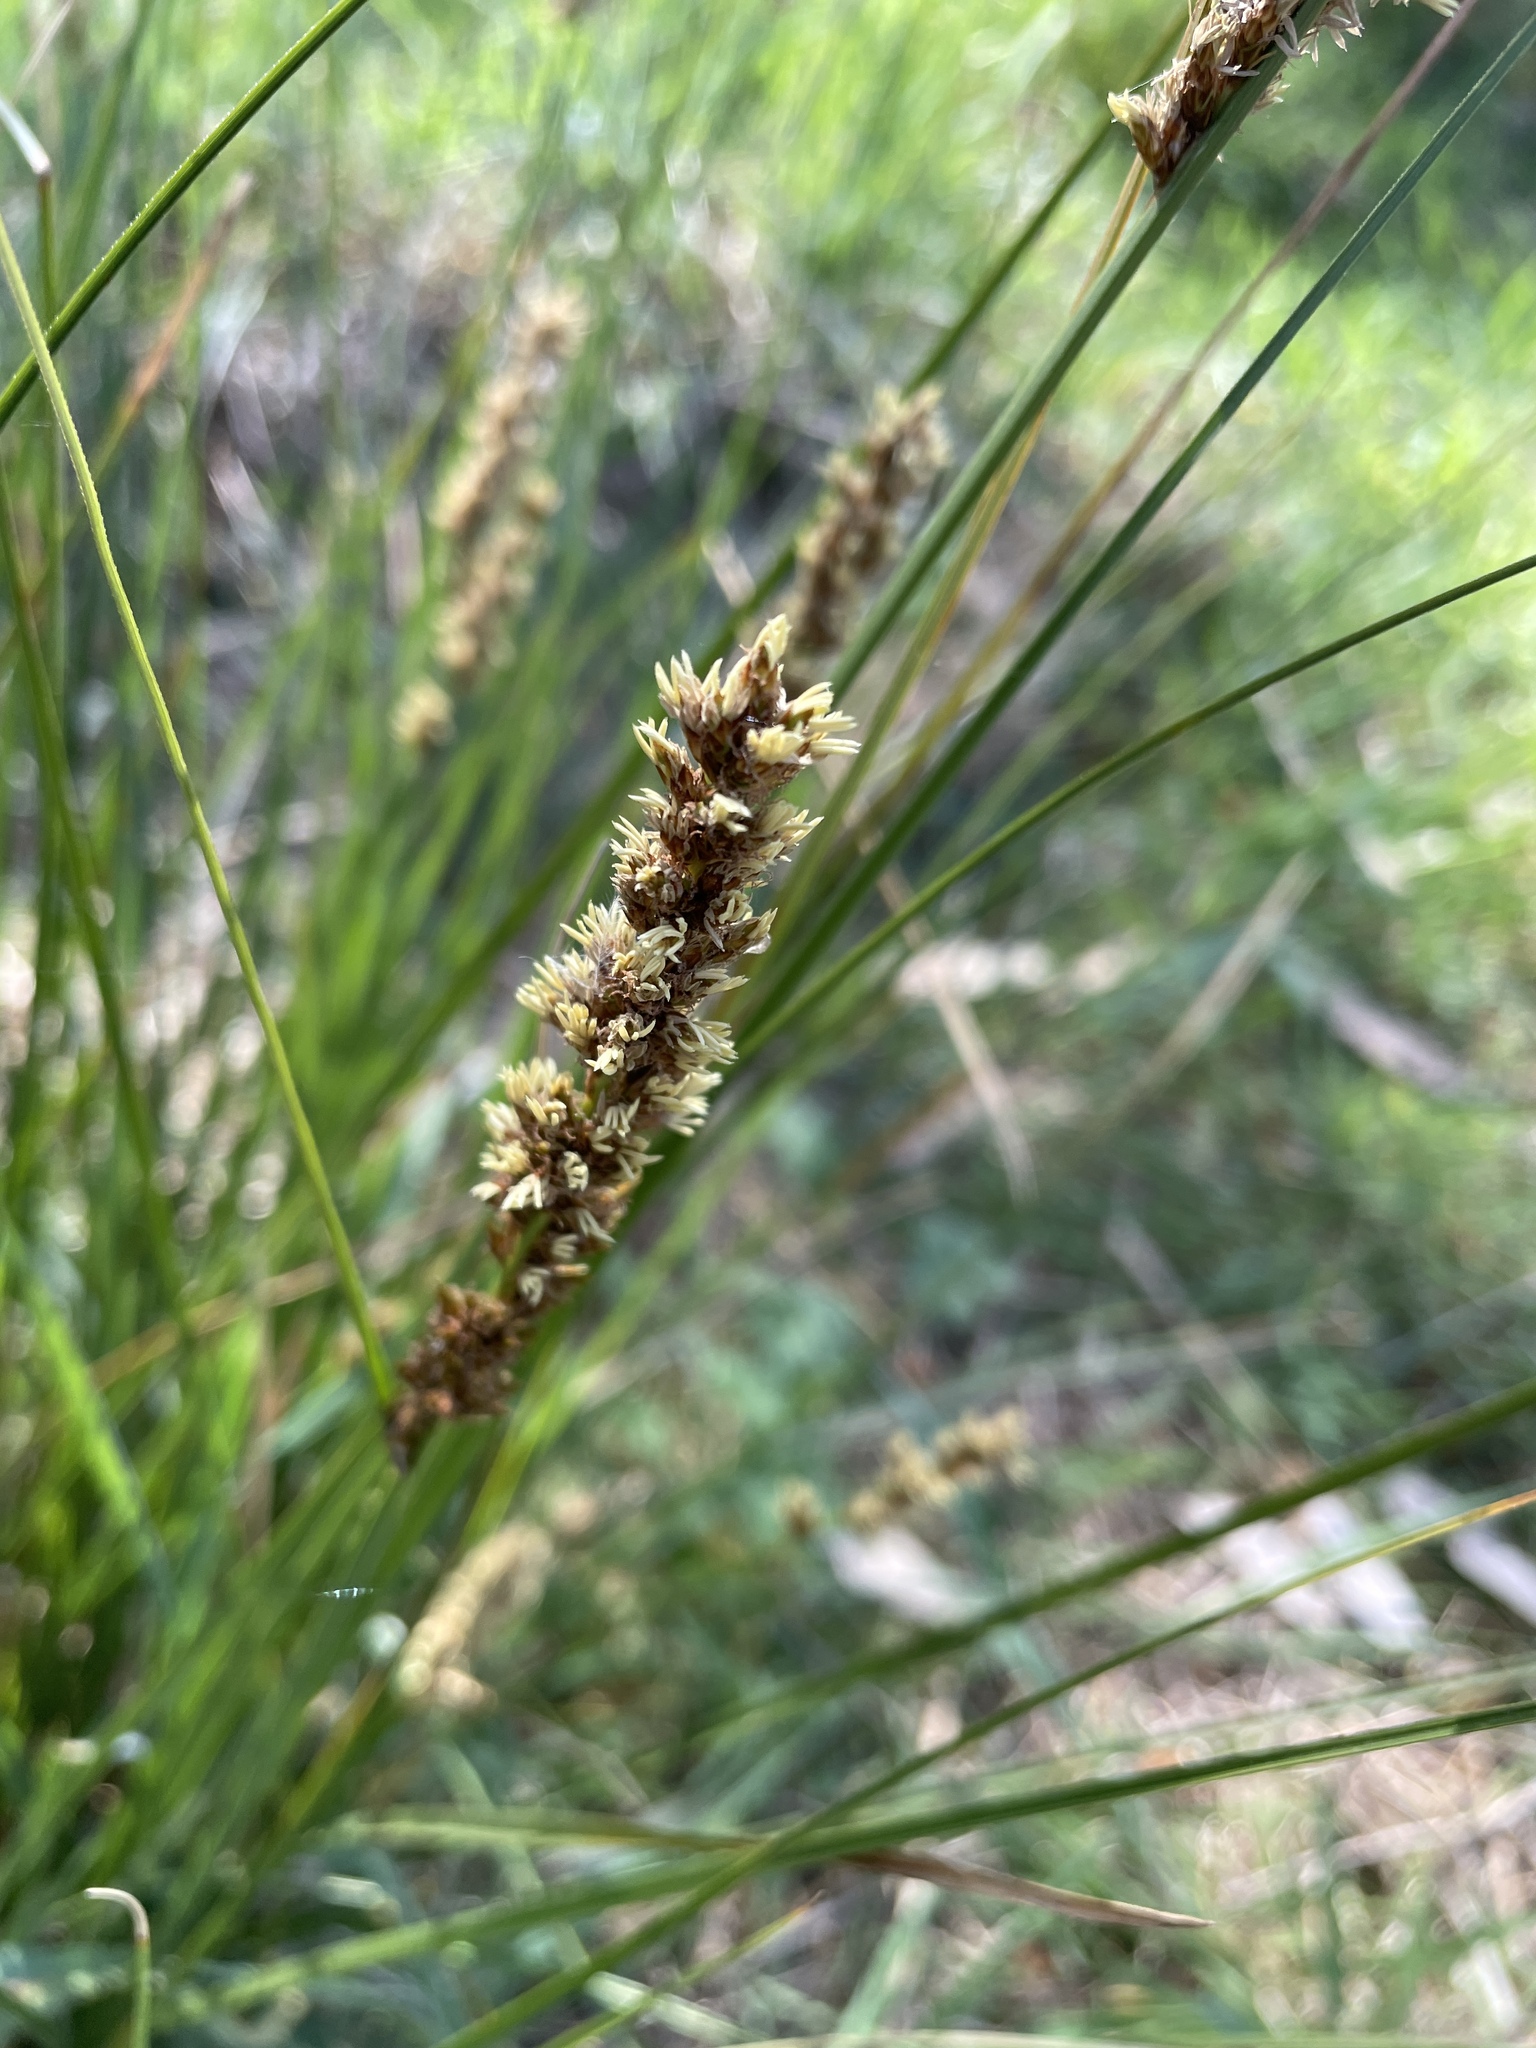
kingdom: Plantae
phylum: Tracheophyta
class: Liliopsida
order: Poales
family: Cyperaceae
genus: Carex
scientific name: Carex appressa
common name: Tussock sedge
